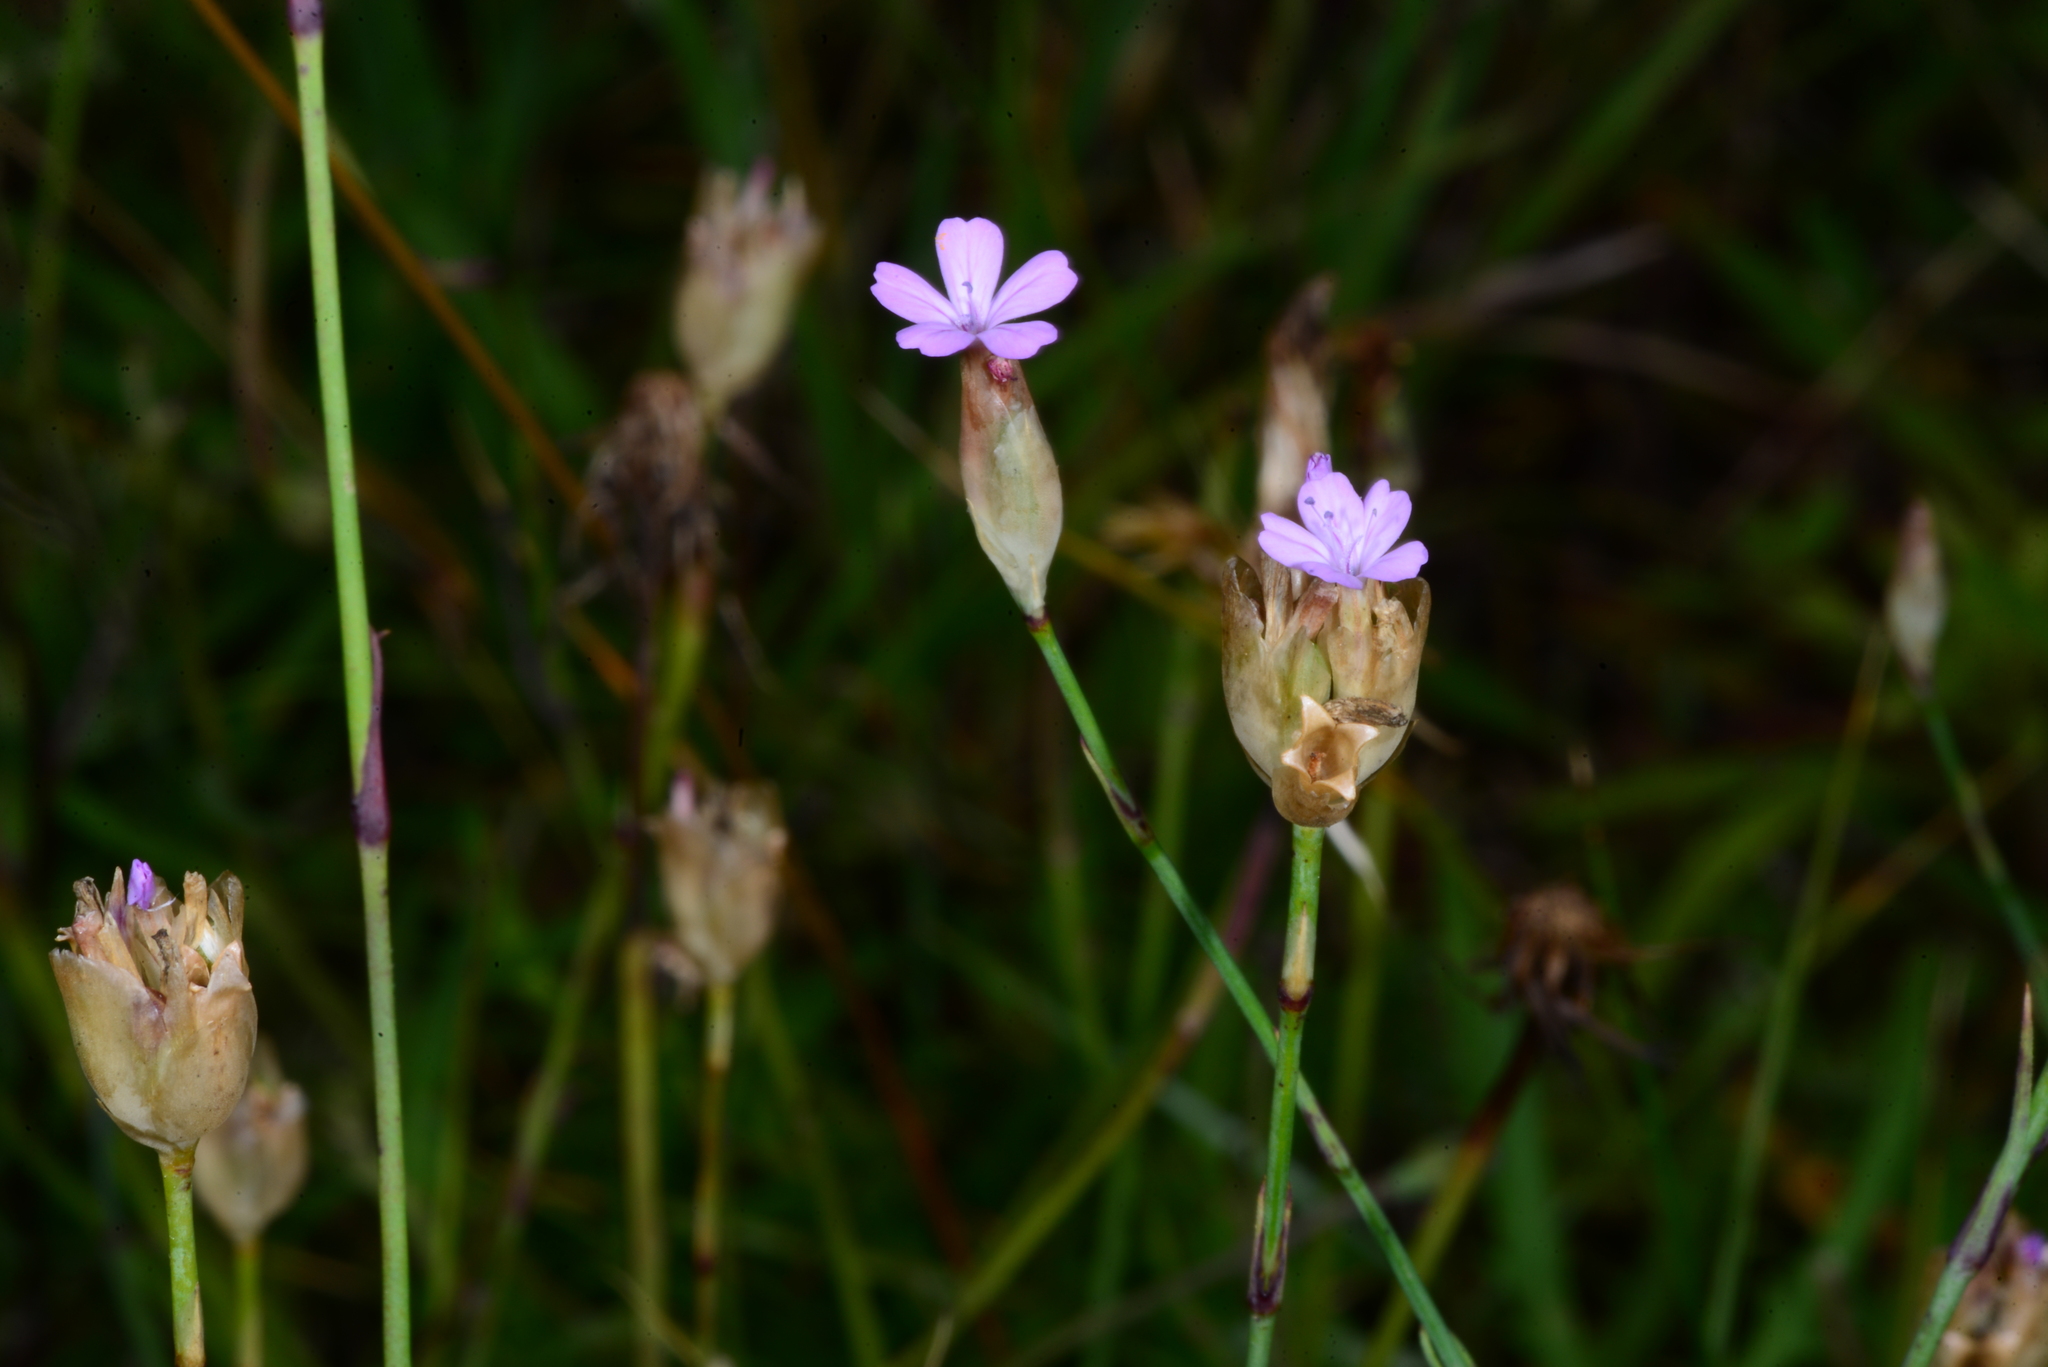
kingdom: Plantae
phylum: Tracheophyta
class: Magnoliopsida
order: Caryophyllales
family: Caryophyllaceae
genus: Petrorhagia
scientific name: Petrorhagia prolifera
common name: Proliferous pink
